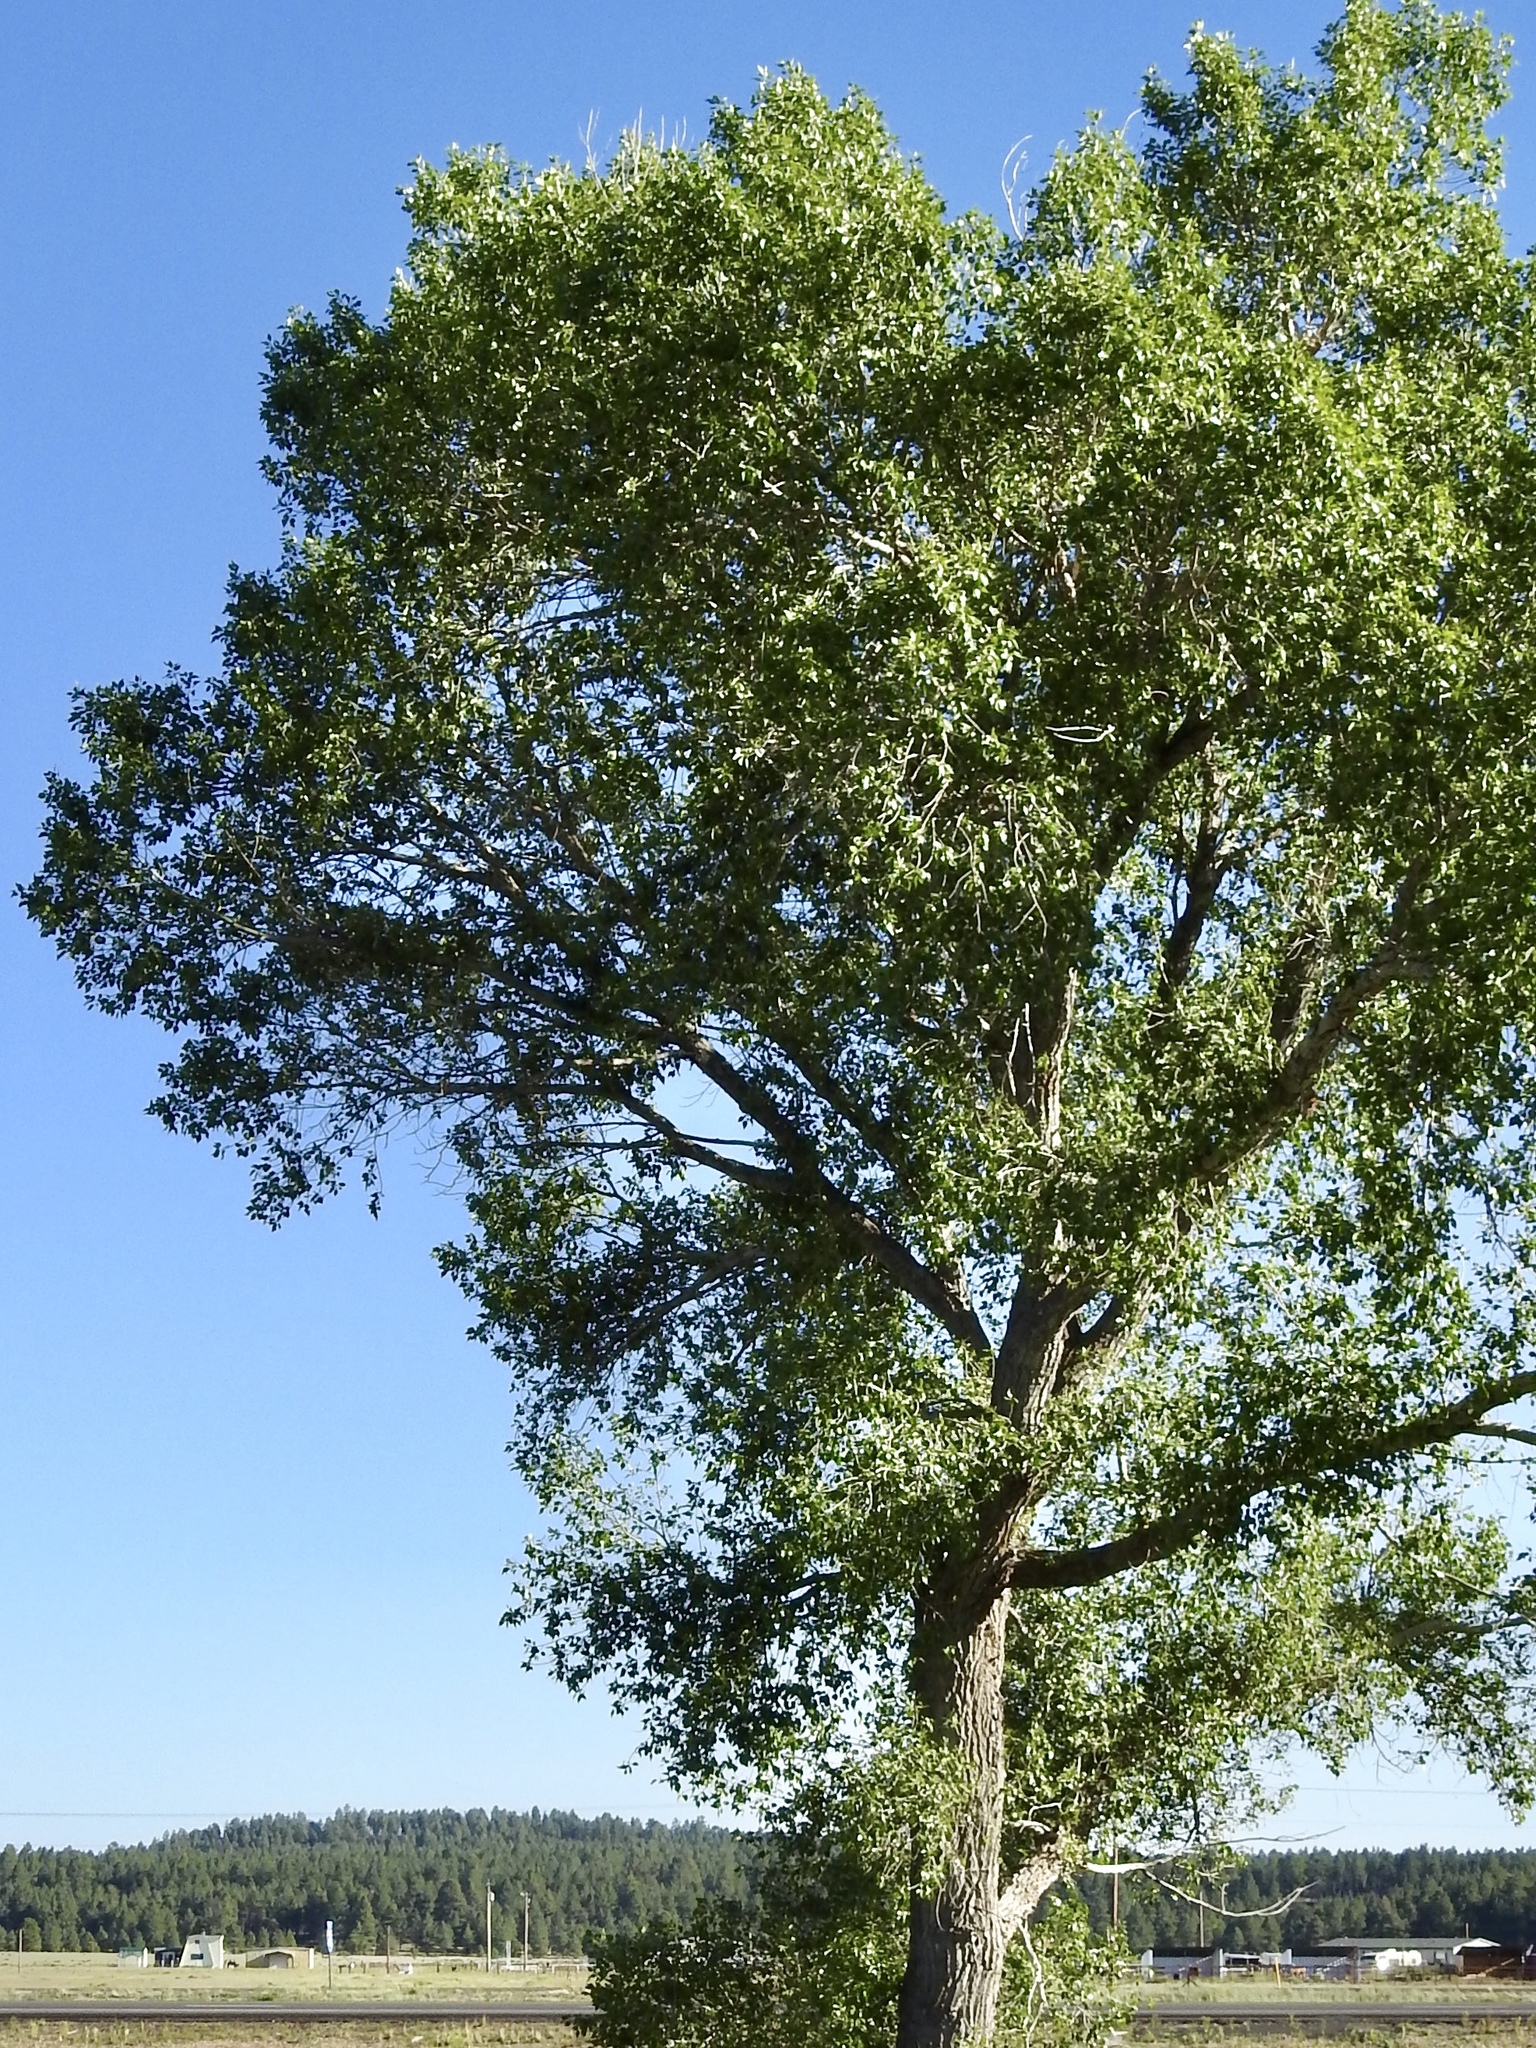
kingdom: Plantae
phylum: Tracheophyta
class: Magnoliopsida
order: Malpighiales
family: Salicaceae
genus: Populus
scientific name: Populus fremontii
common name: Fremont's cottonwood
